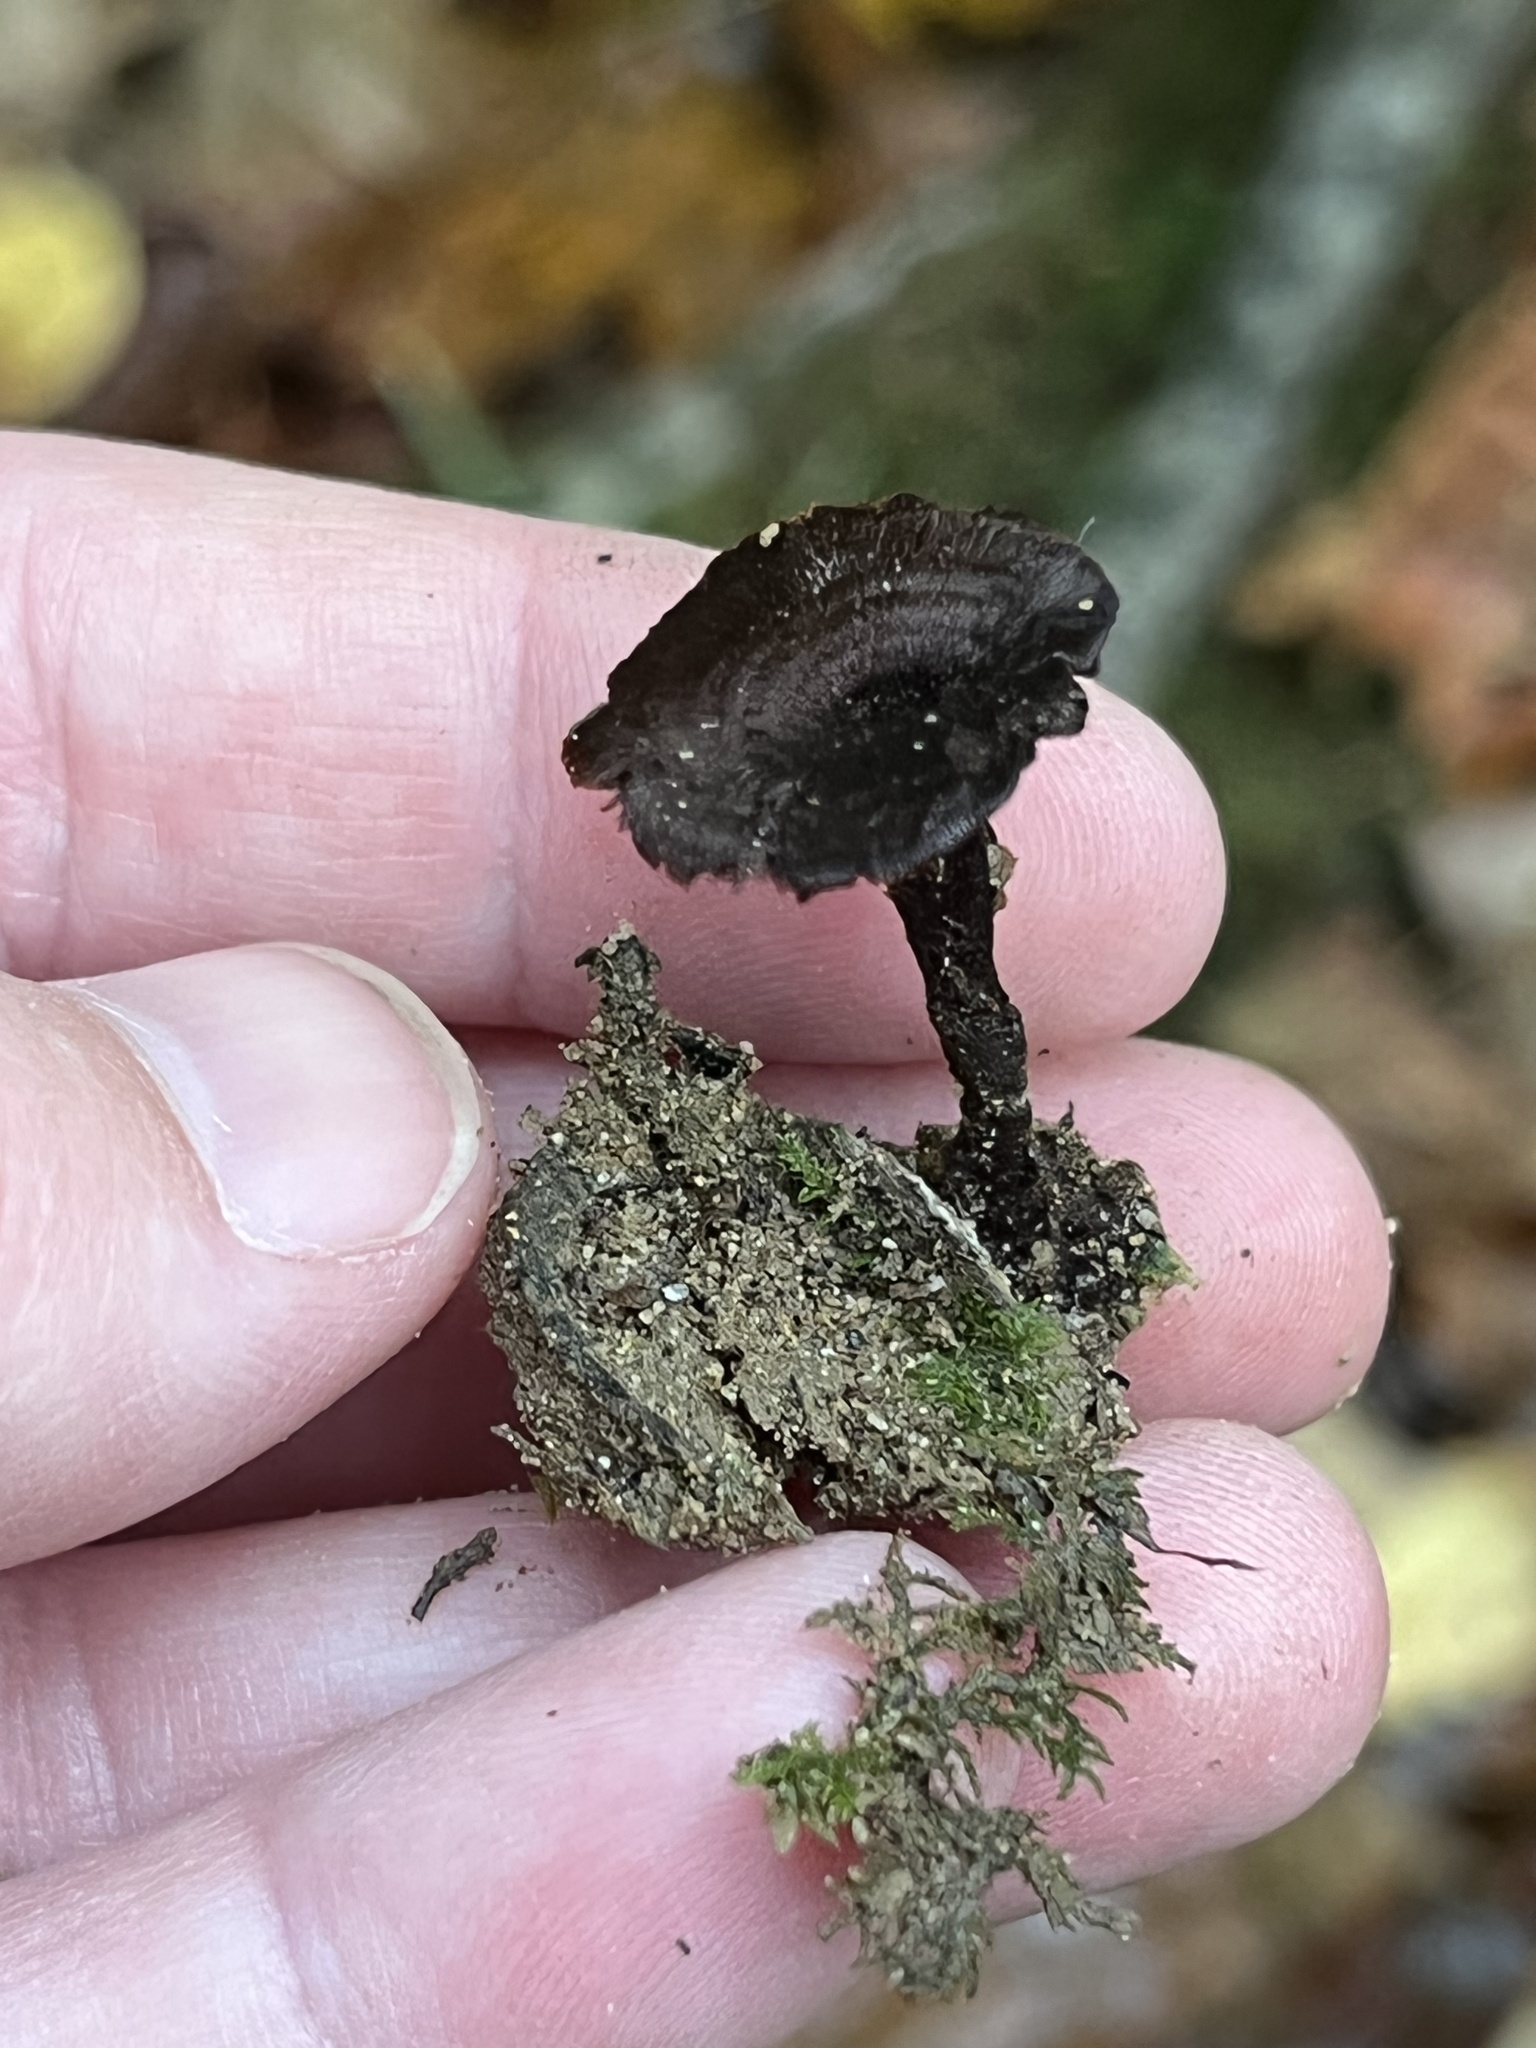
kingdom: Fungi
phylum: Basidiomycota
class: Agaricomycetes
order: Hymenochaetales
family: Hymenochaetaceae
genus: Coltricia
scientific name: Coltricia cinnamomea
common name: Shiny cinnamon polypore
